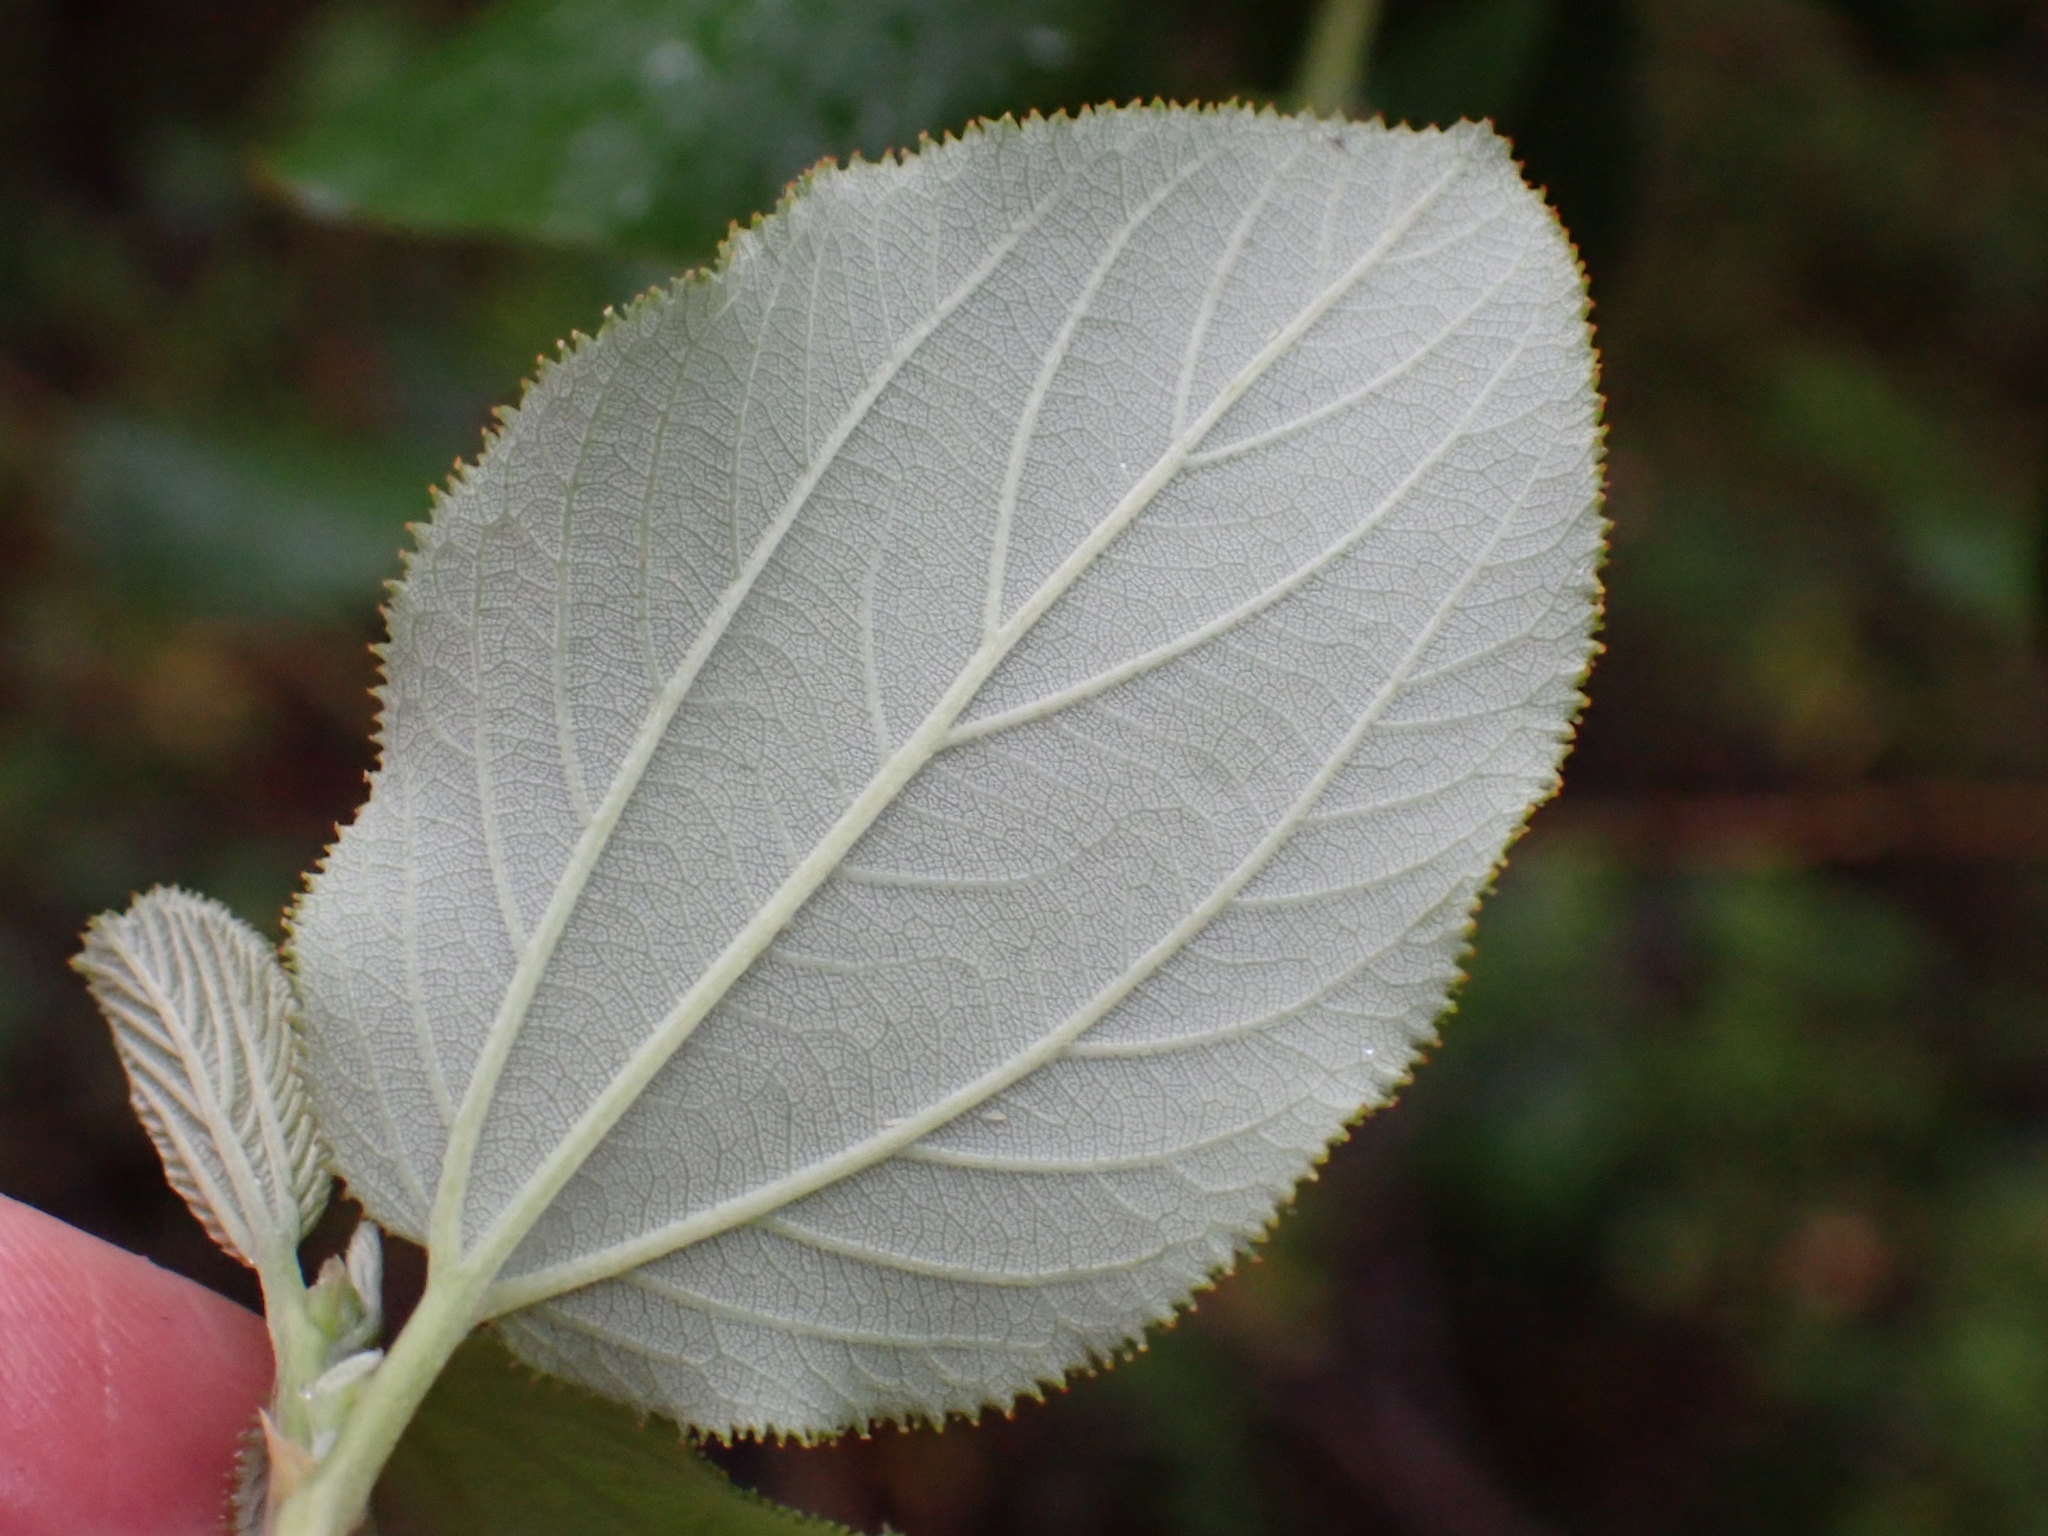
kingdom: Plantae
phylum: Tracheophyta
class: Magnoliopsida
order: Rosales
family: Rhamnaceae
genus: Ceanothus
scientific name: Ceanothus sanguineus
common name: Teatree
